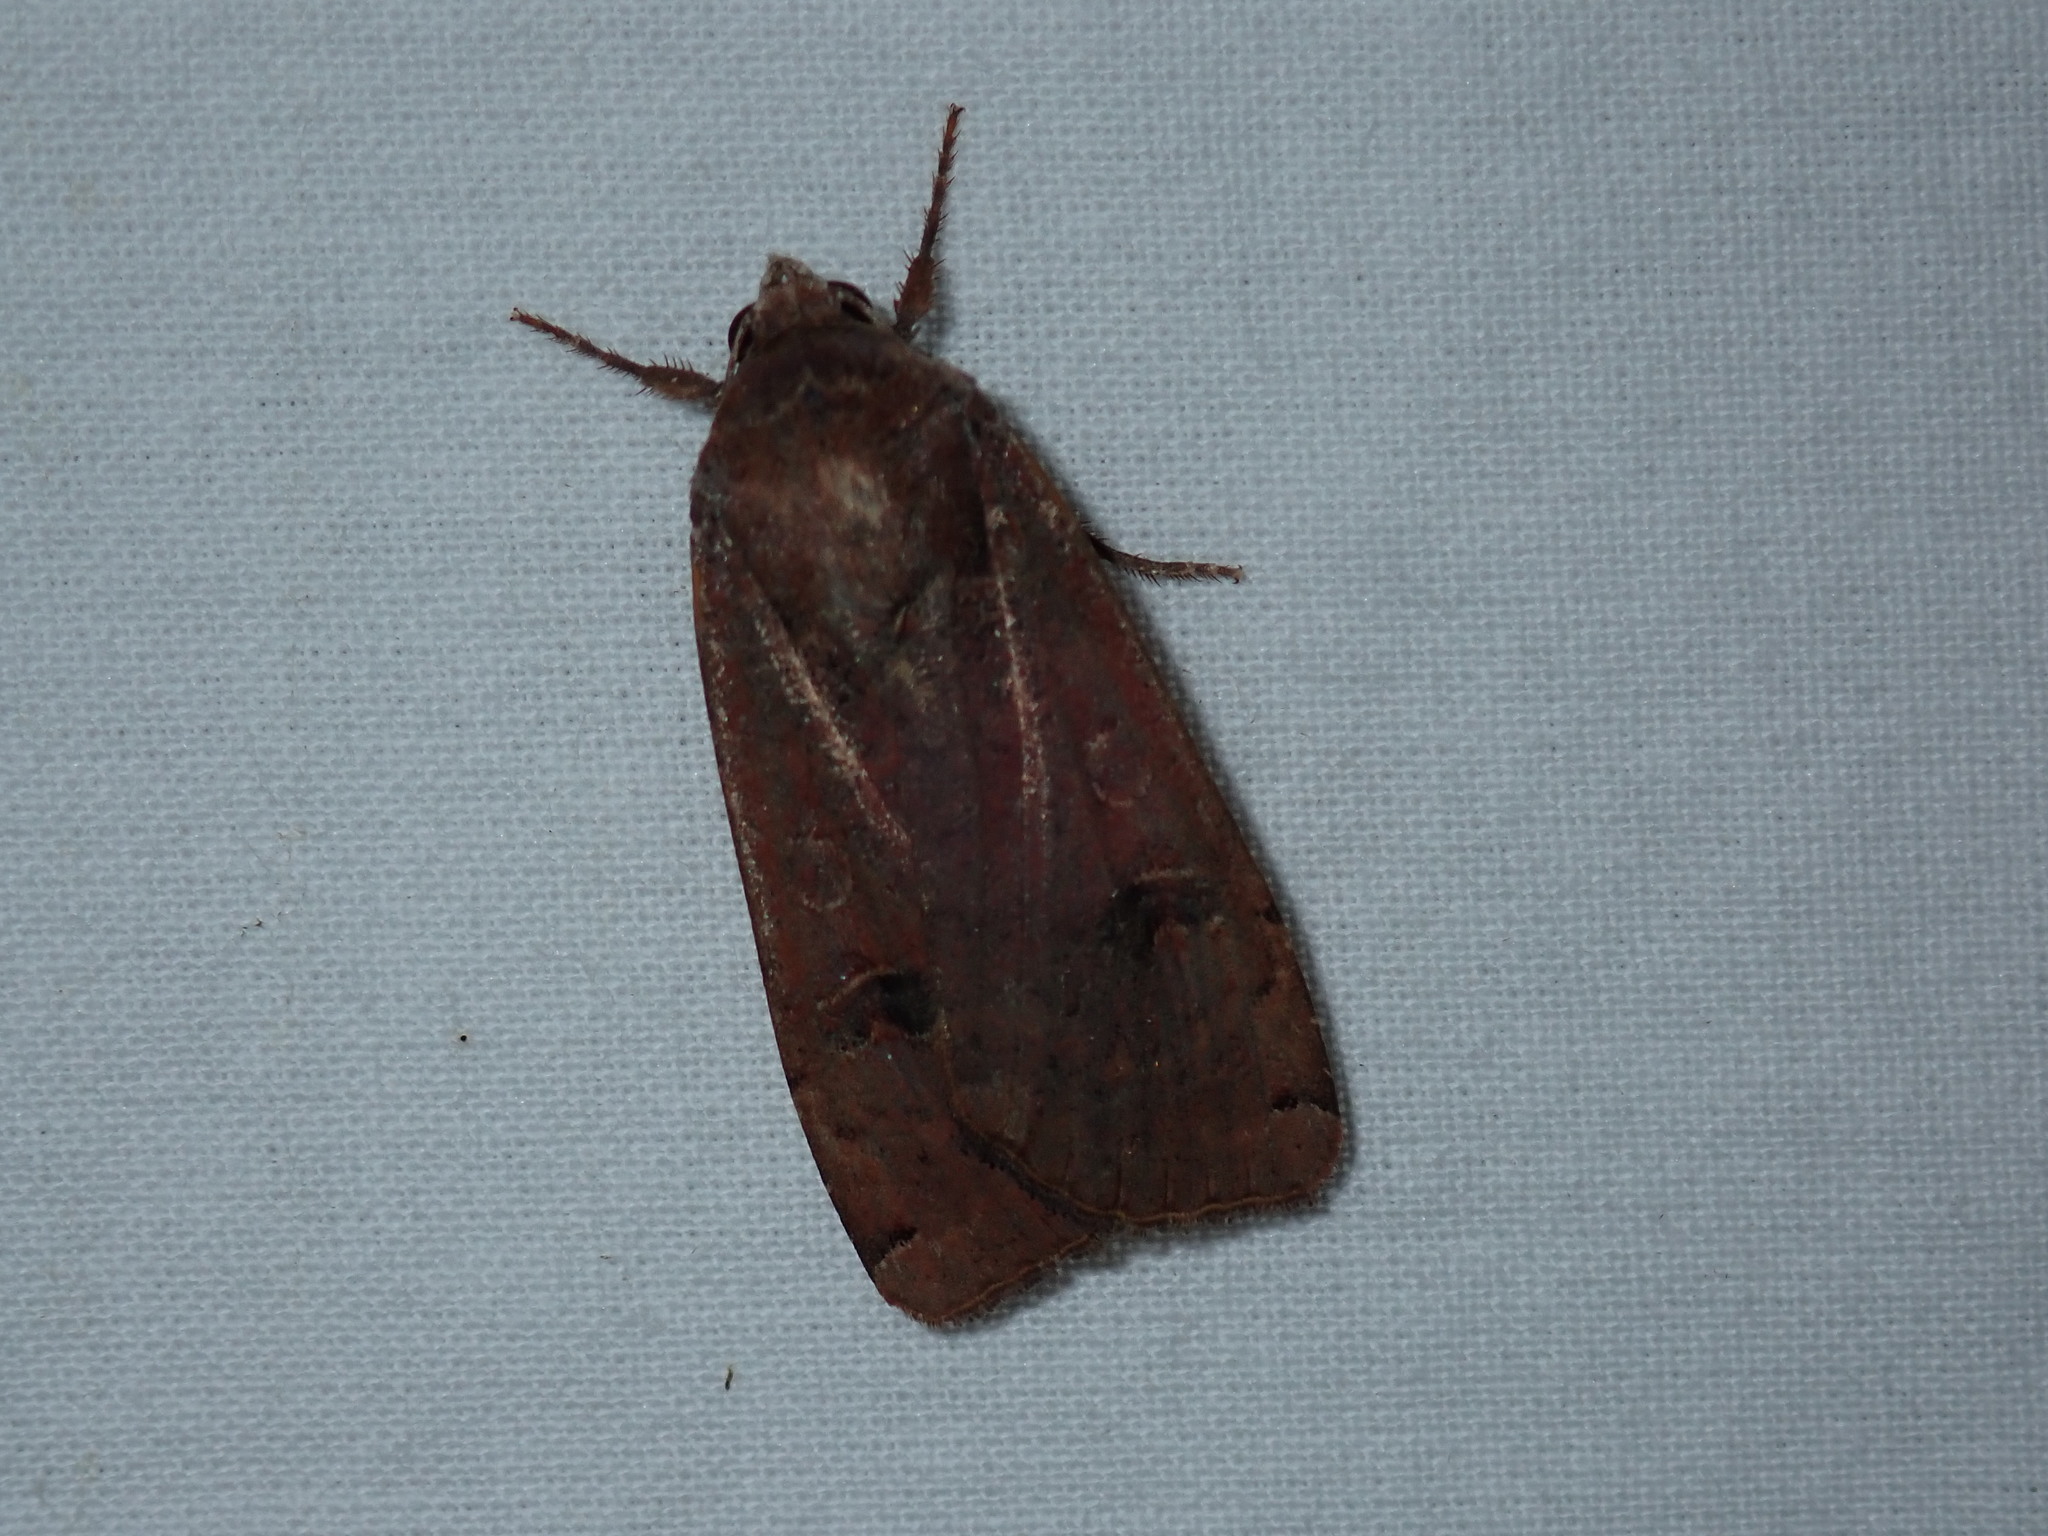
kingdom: Animalia
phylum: Arthropoda
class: Insecta
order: Lepidoptera
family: Noctuidae
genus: Noctua
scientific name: Noctua pronuba
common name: Large yellow underwing
